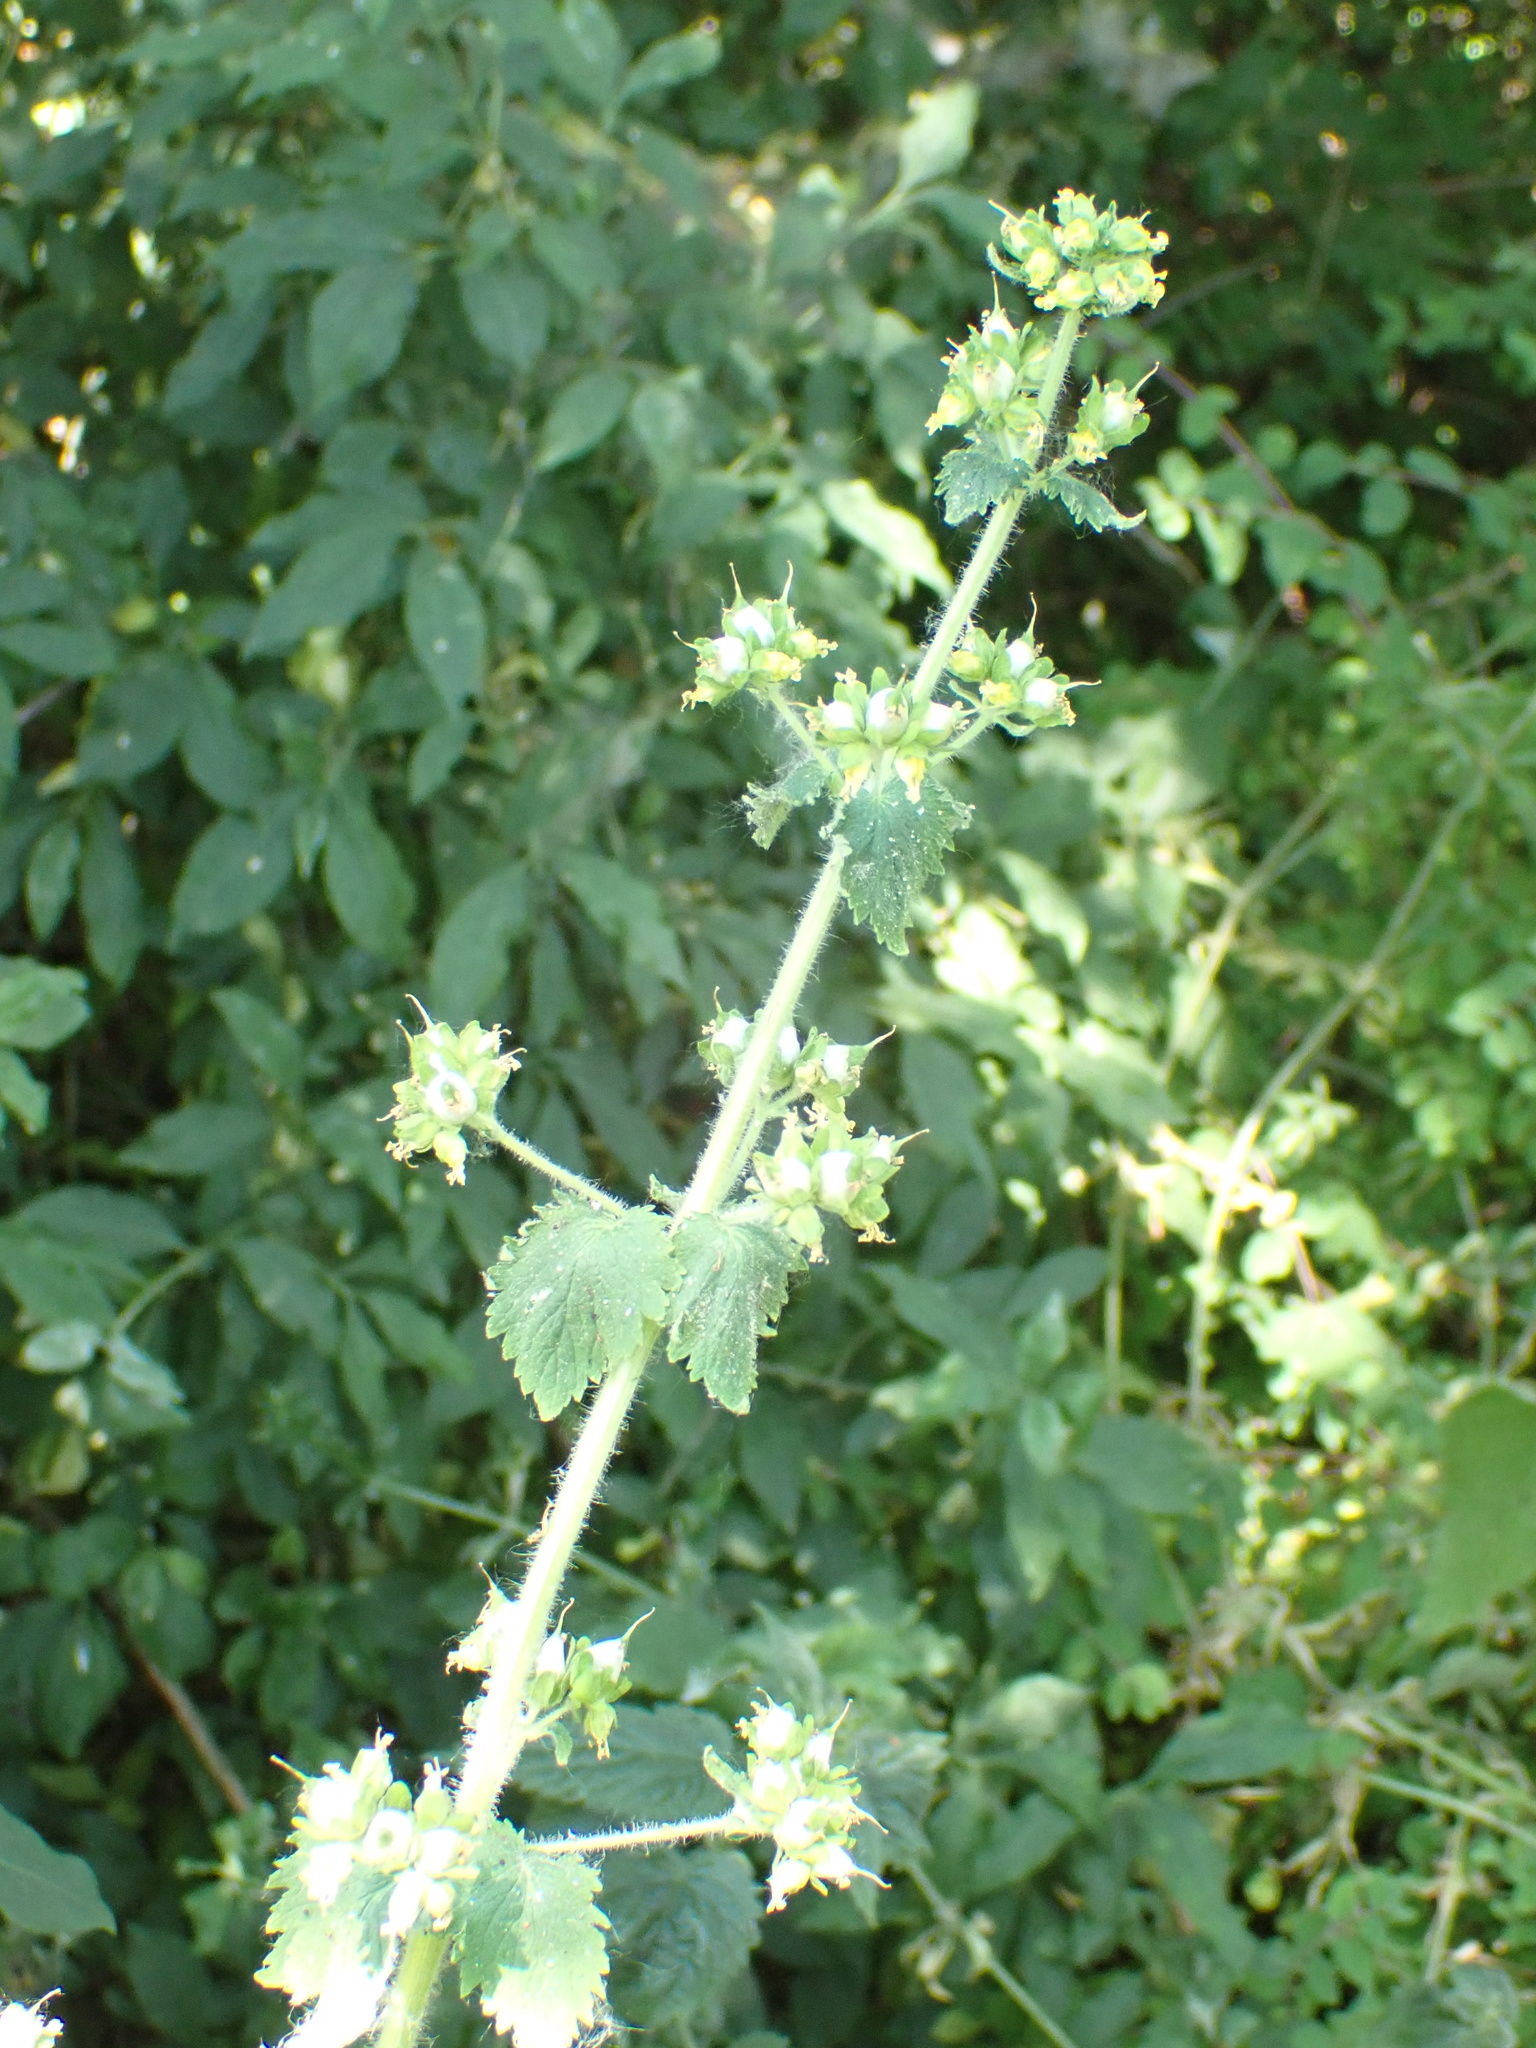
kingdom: Plantae
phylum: Tracheophyta
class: Magnoliopsida
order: Lamiales
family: Scrophulariaceae
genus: Scrophularia
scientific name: Scrophularia vernalis
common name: Yellow figwort
